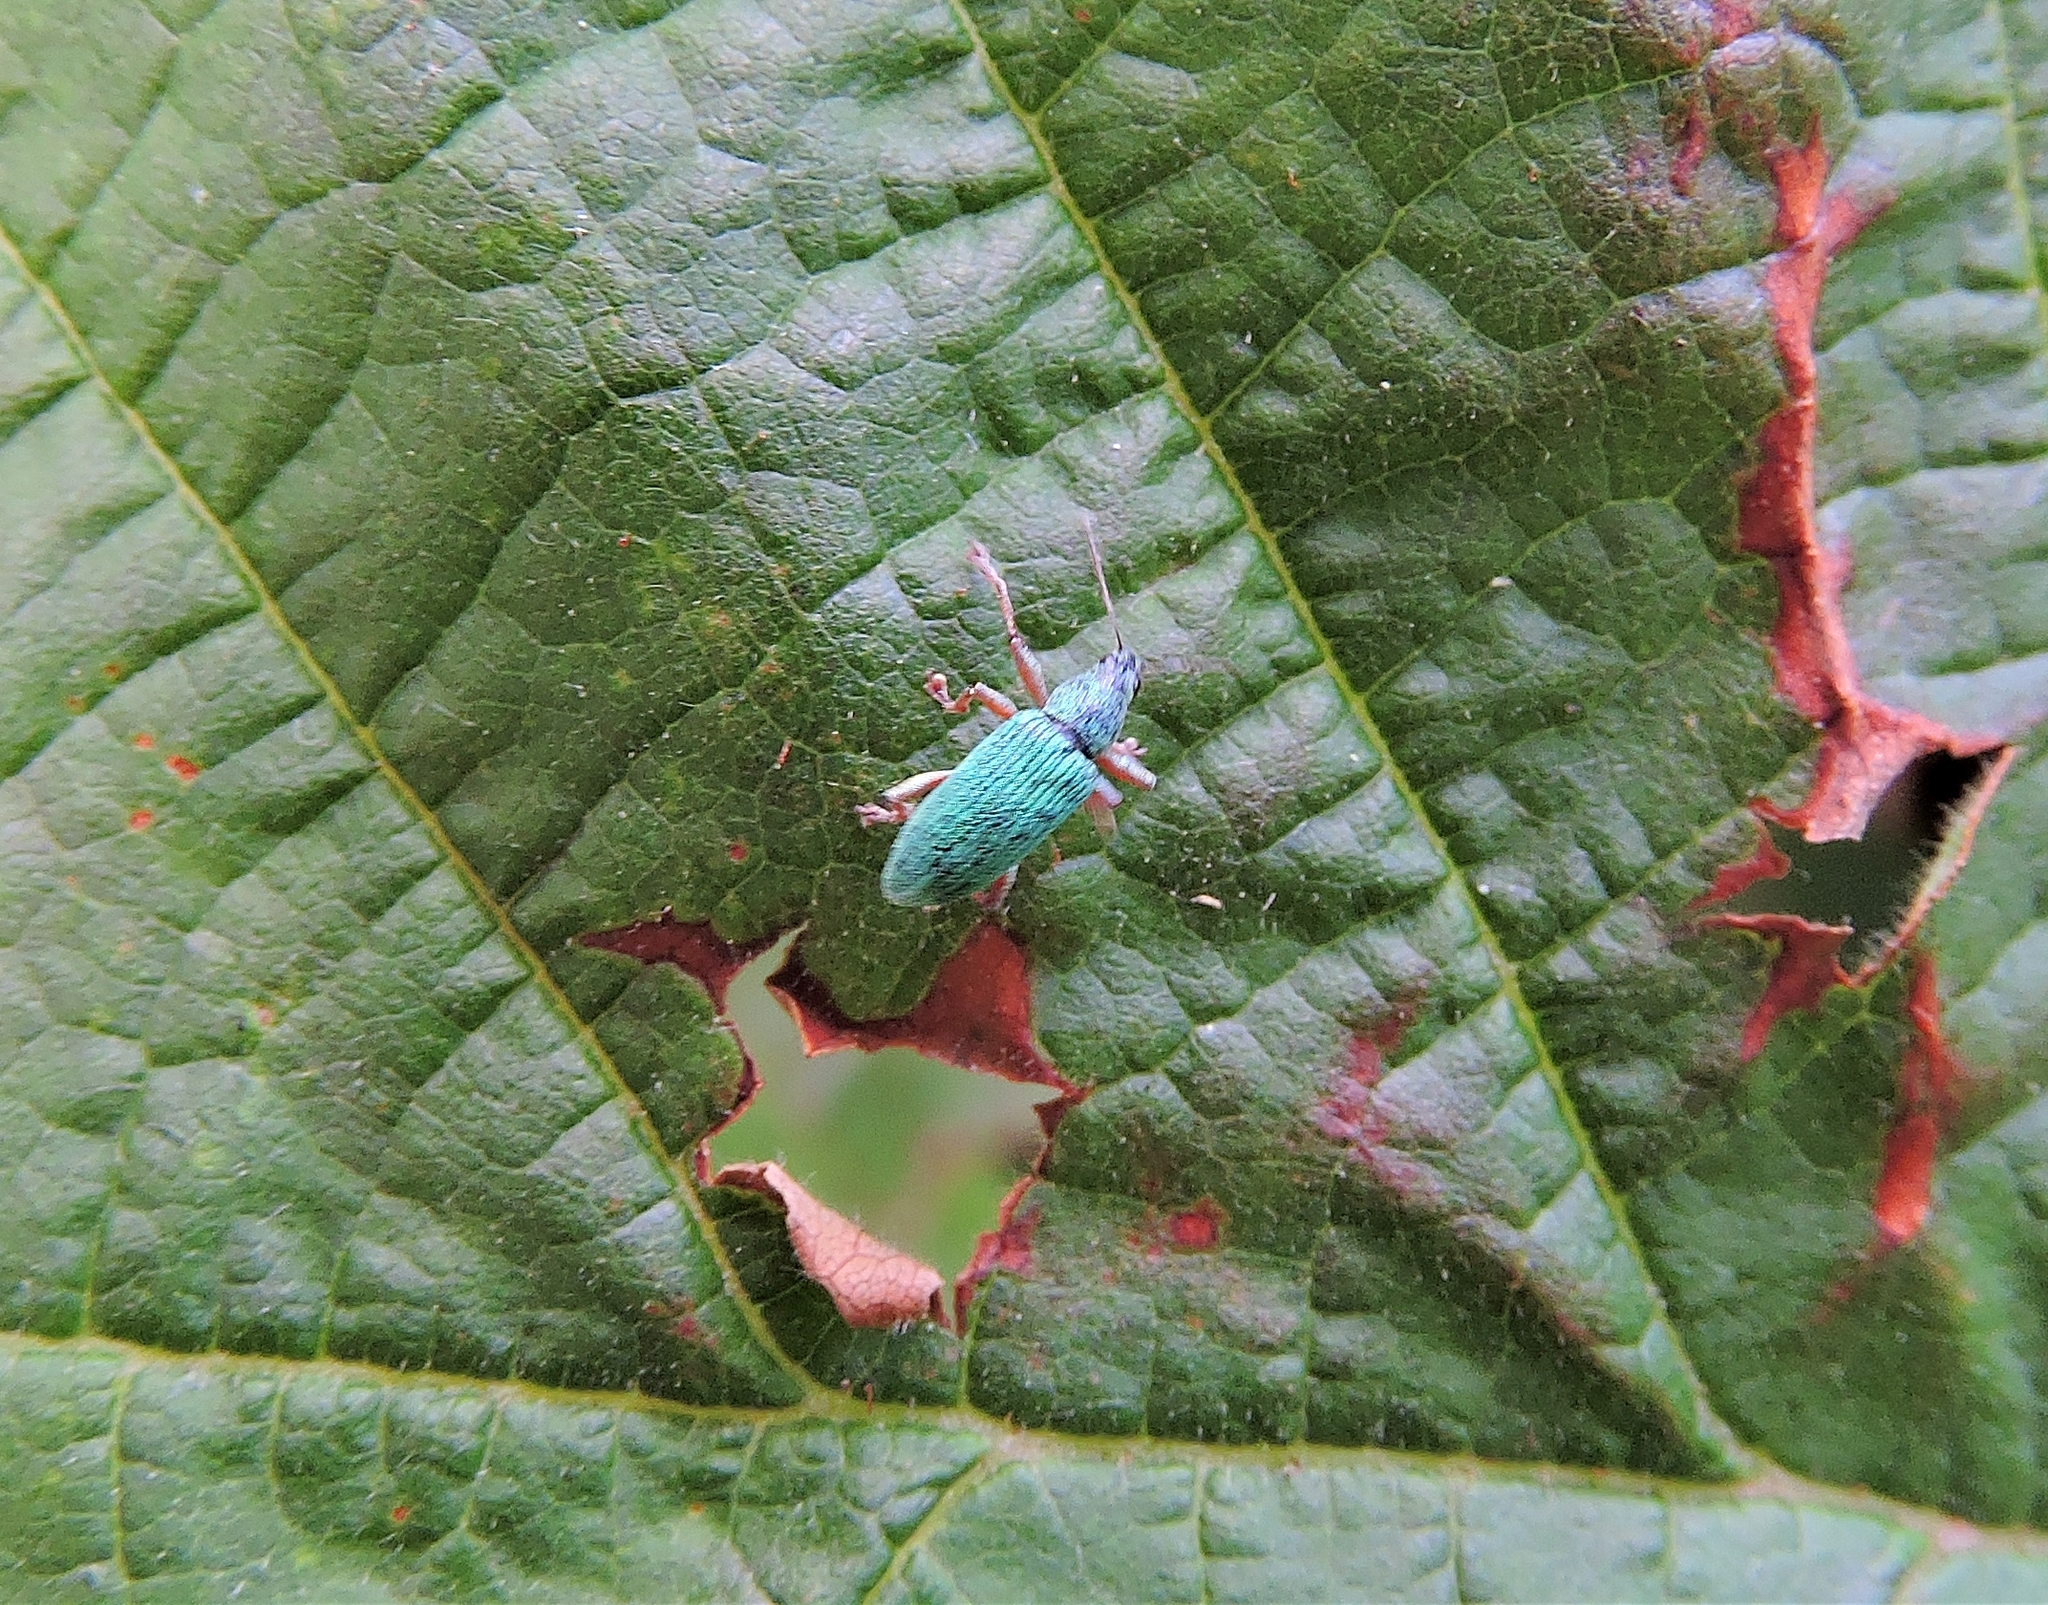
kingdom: Animalia
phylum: Arthropoda
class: Insecta
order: Coleoptera
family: Curculionidae
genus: Polydrusus
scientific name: Polydrusus formosus
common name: Weevil
